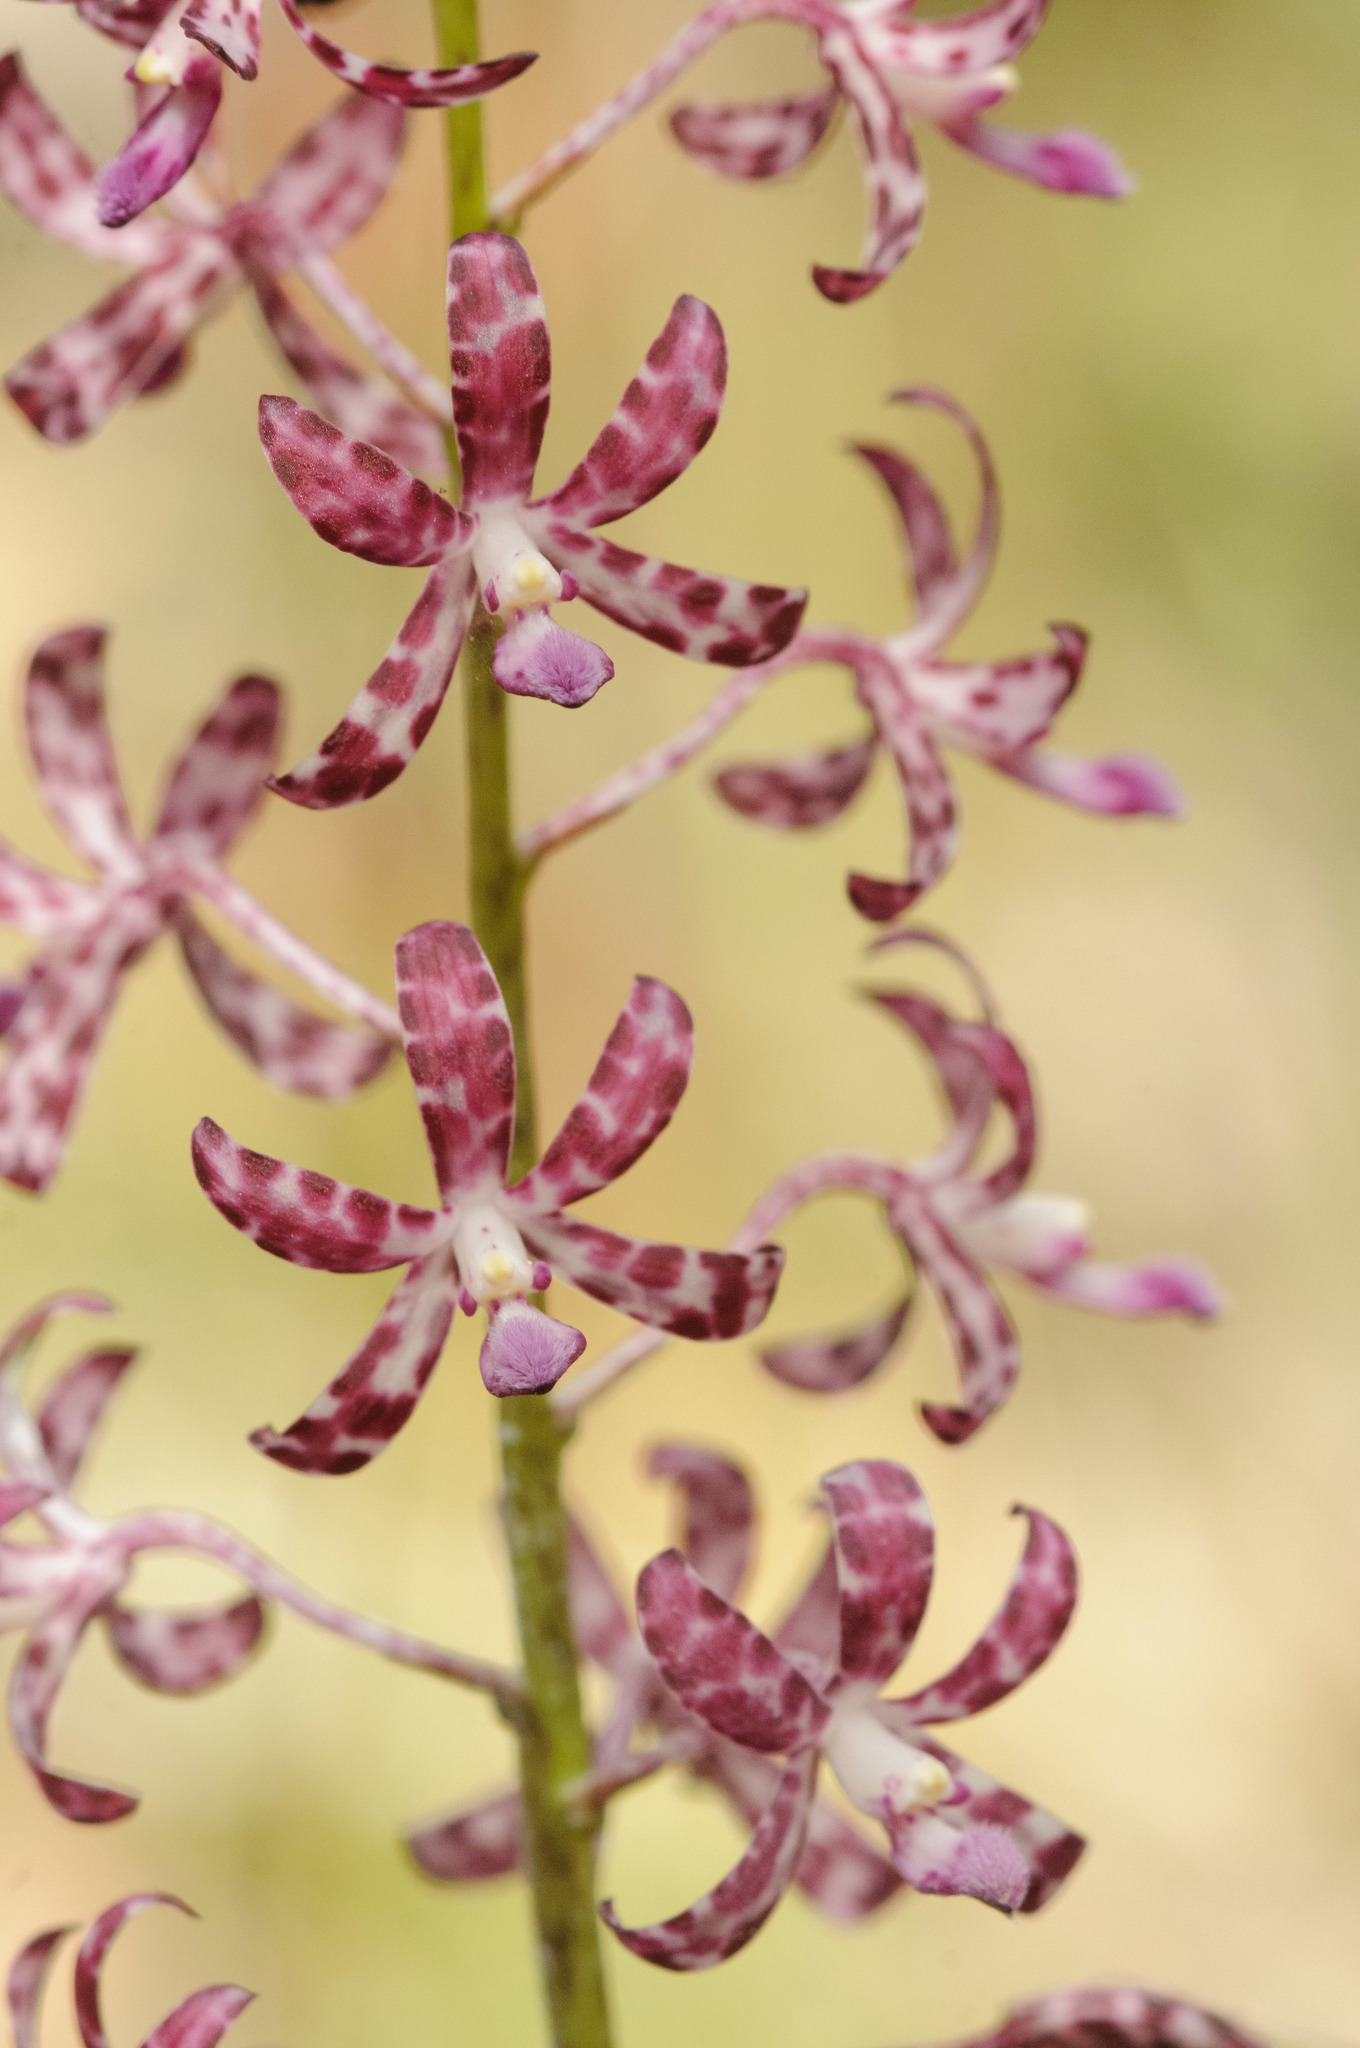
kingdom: Plantae
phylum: Tracheophyta
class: Liliopsida
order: Asparagales
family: Orchidaceae
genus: Dipodium
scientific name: Dipodium variegatum
